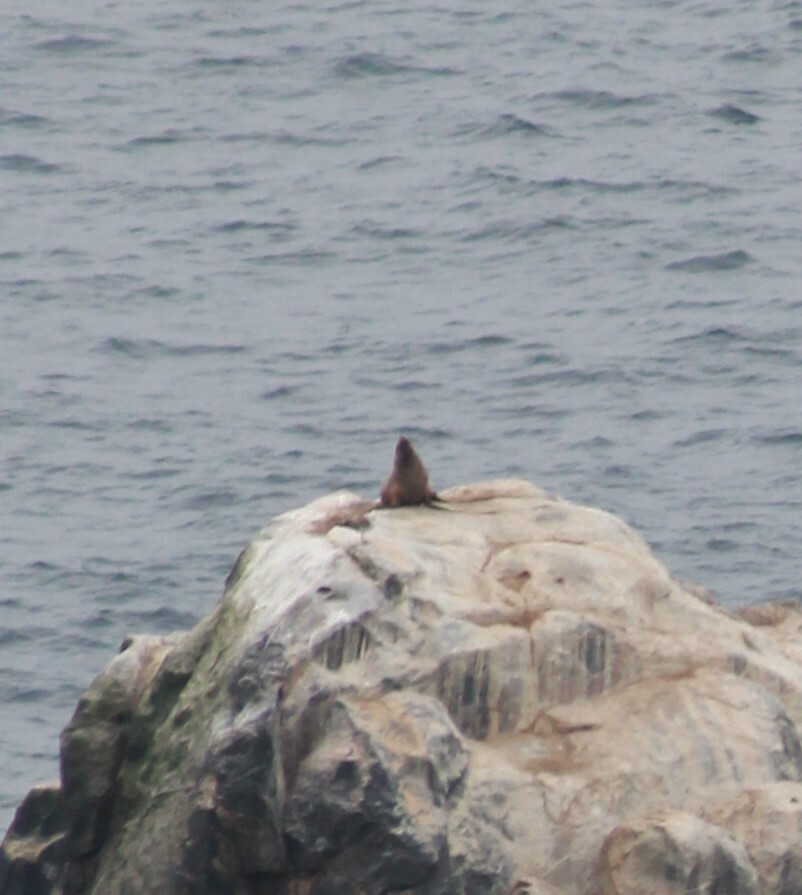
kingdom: Animalia
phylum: Chordata
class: Mammalia
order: Carnivora
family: Otariidae
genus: Otaria
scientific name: Otaria byronia
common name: South american sea lion
